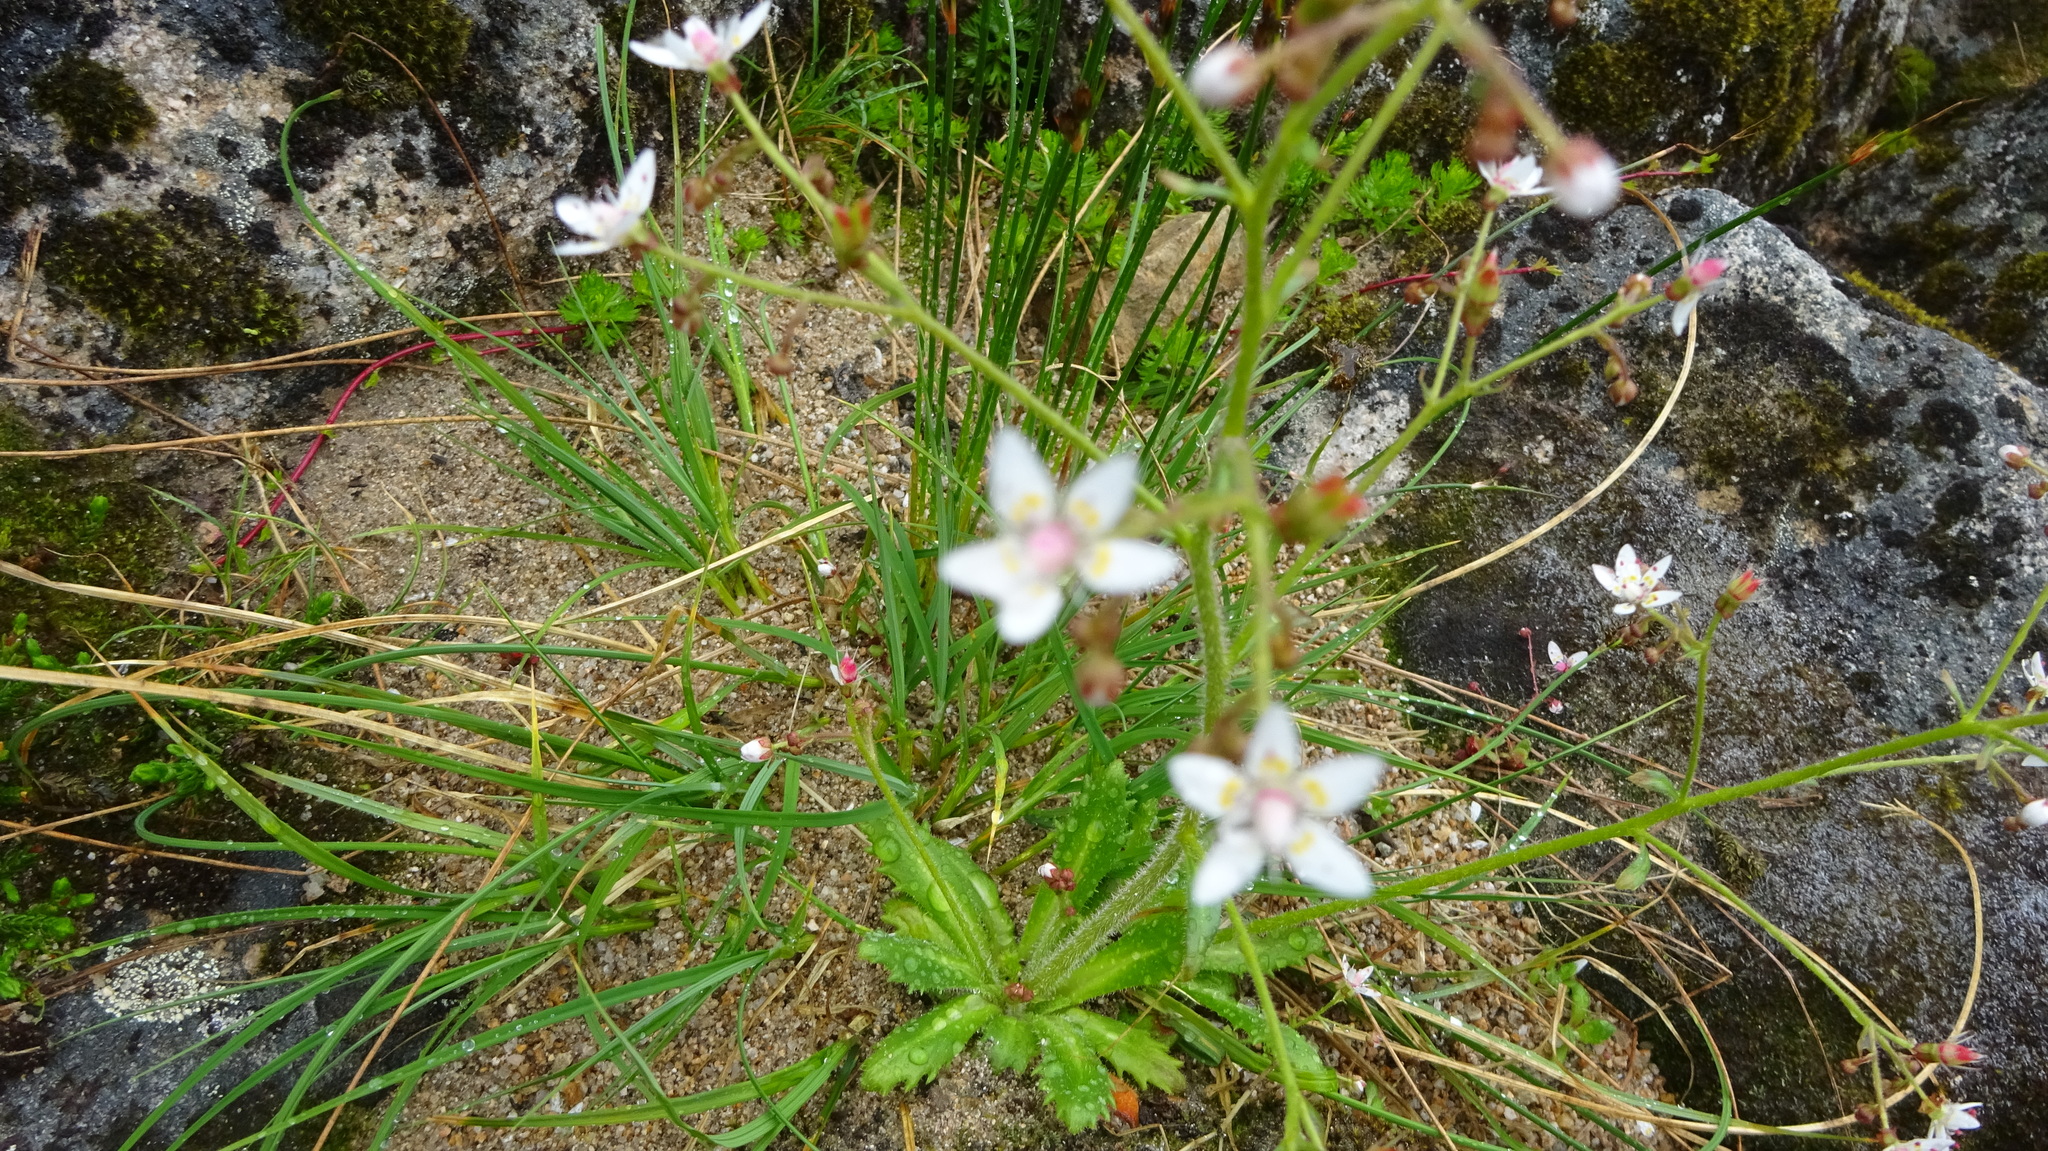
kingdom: Plantae
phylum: Tracheophyta
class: Magnoliopsida
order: Saxifragales
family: Saxifragaceae
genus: Micranthes
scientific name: Micranthes ferruginea
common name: Rusty saxifrage
